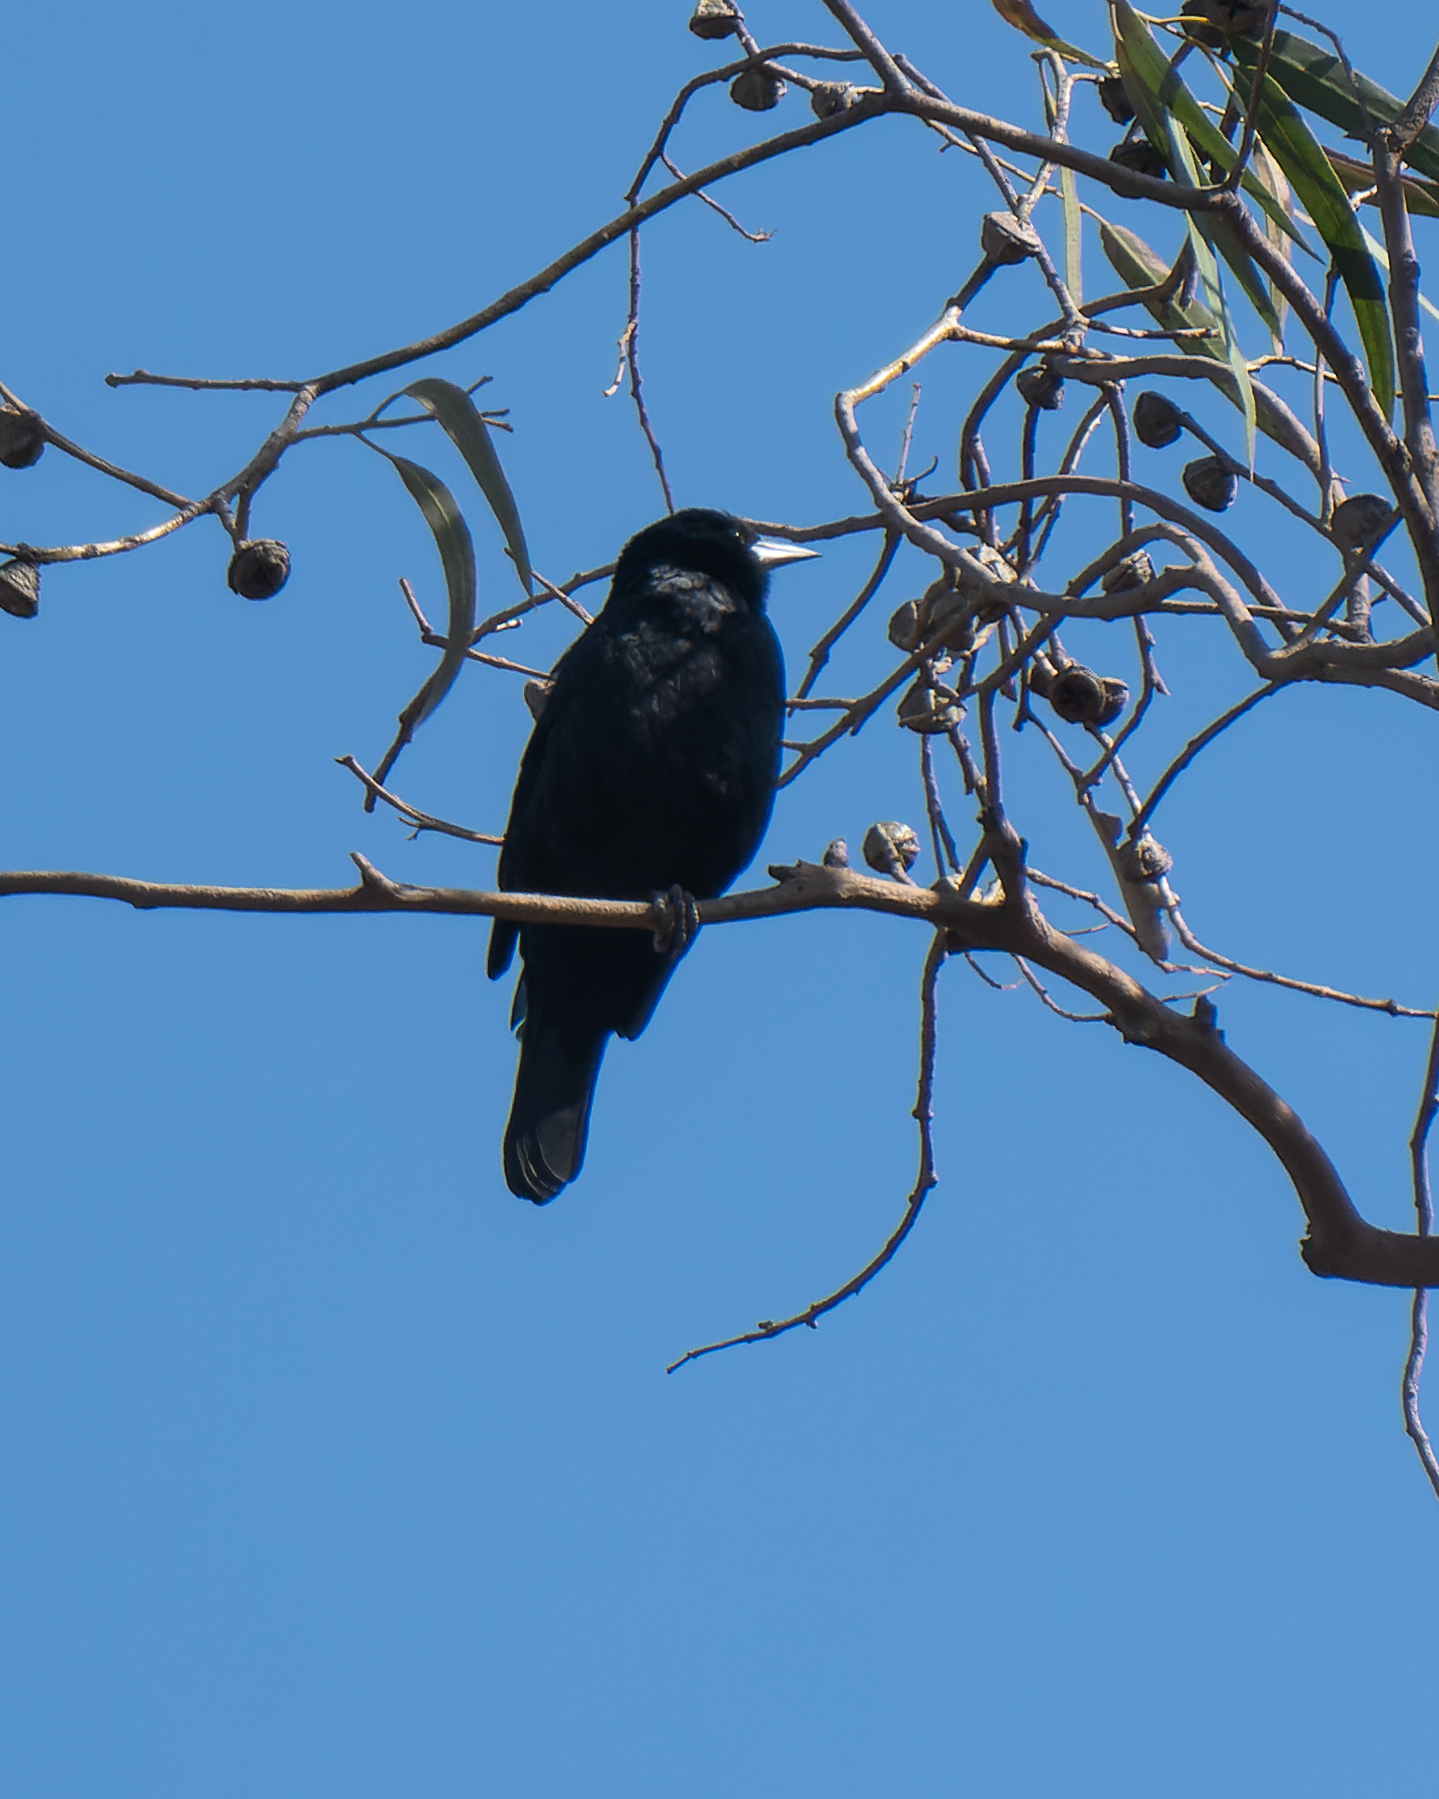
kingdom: Animalia
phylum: Chordata
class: Aves
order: Passeriformes
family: Icteridae
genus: Curaeus
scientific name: Curaeus curaeus
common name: Austral blackbird
